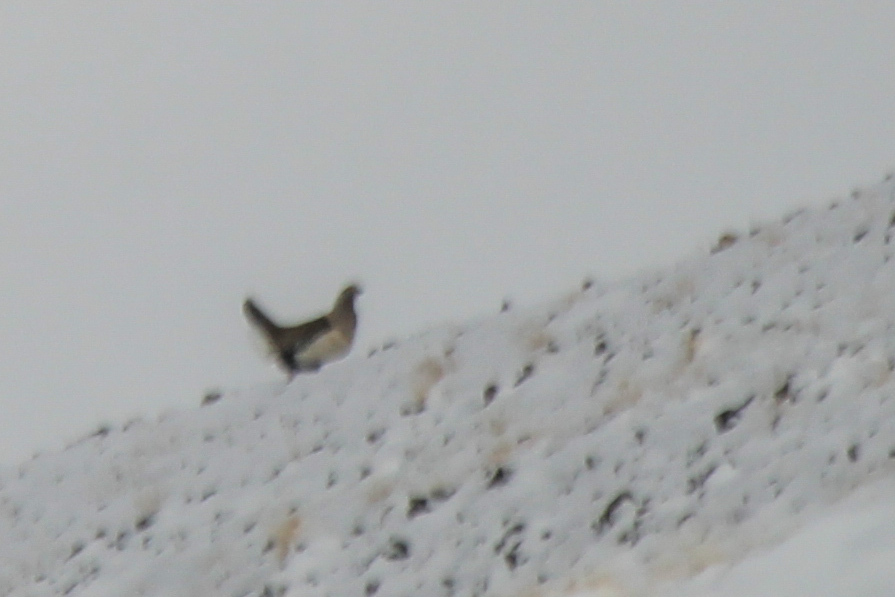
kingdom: Animalia
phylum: Chordata
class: Aves
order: Galliformes
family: Phasianidae
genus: Tetraogallus
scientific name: Tetraogallus altaicus
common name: Altai snowcock
